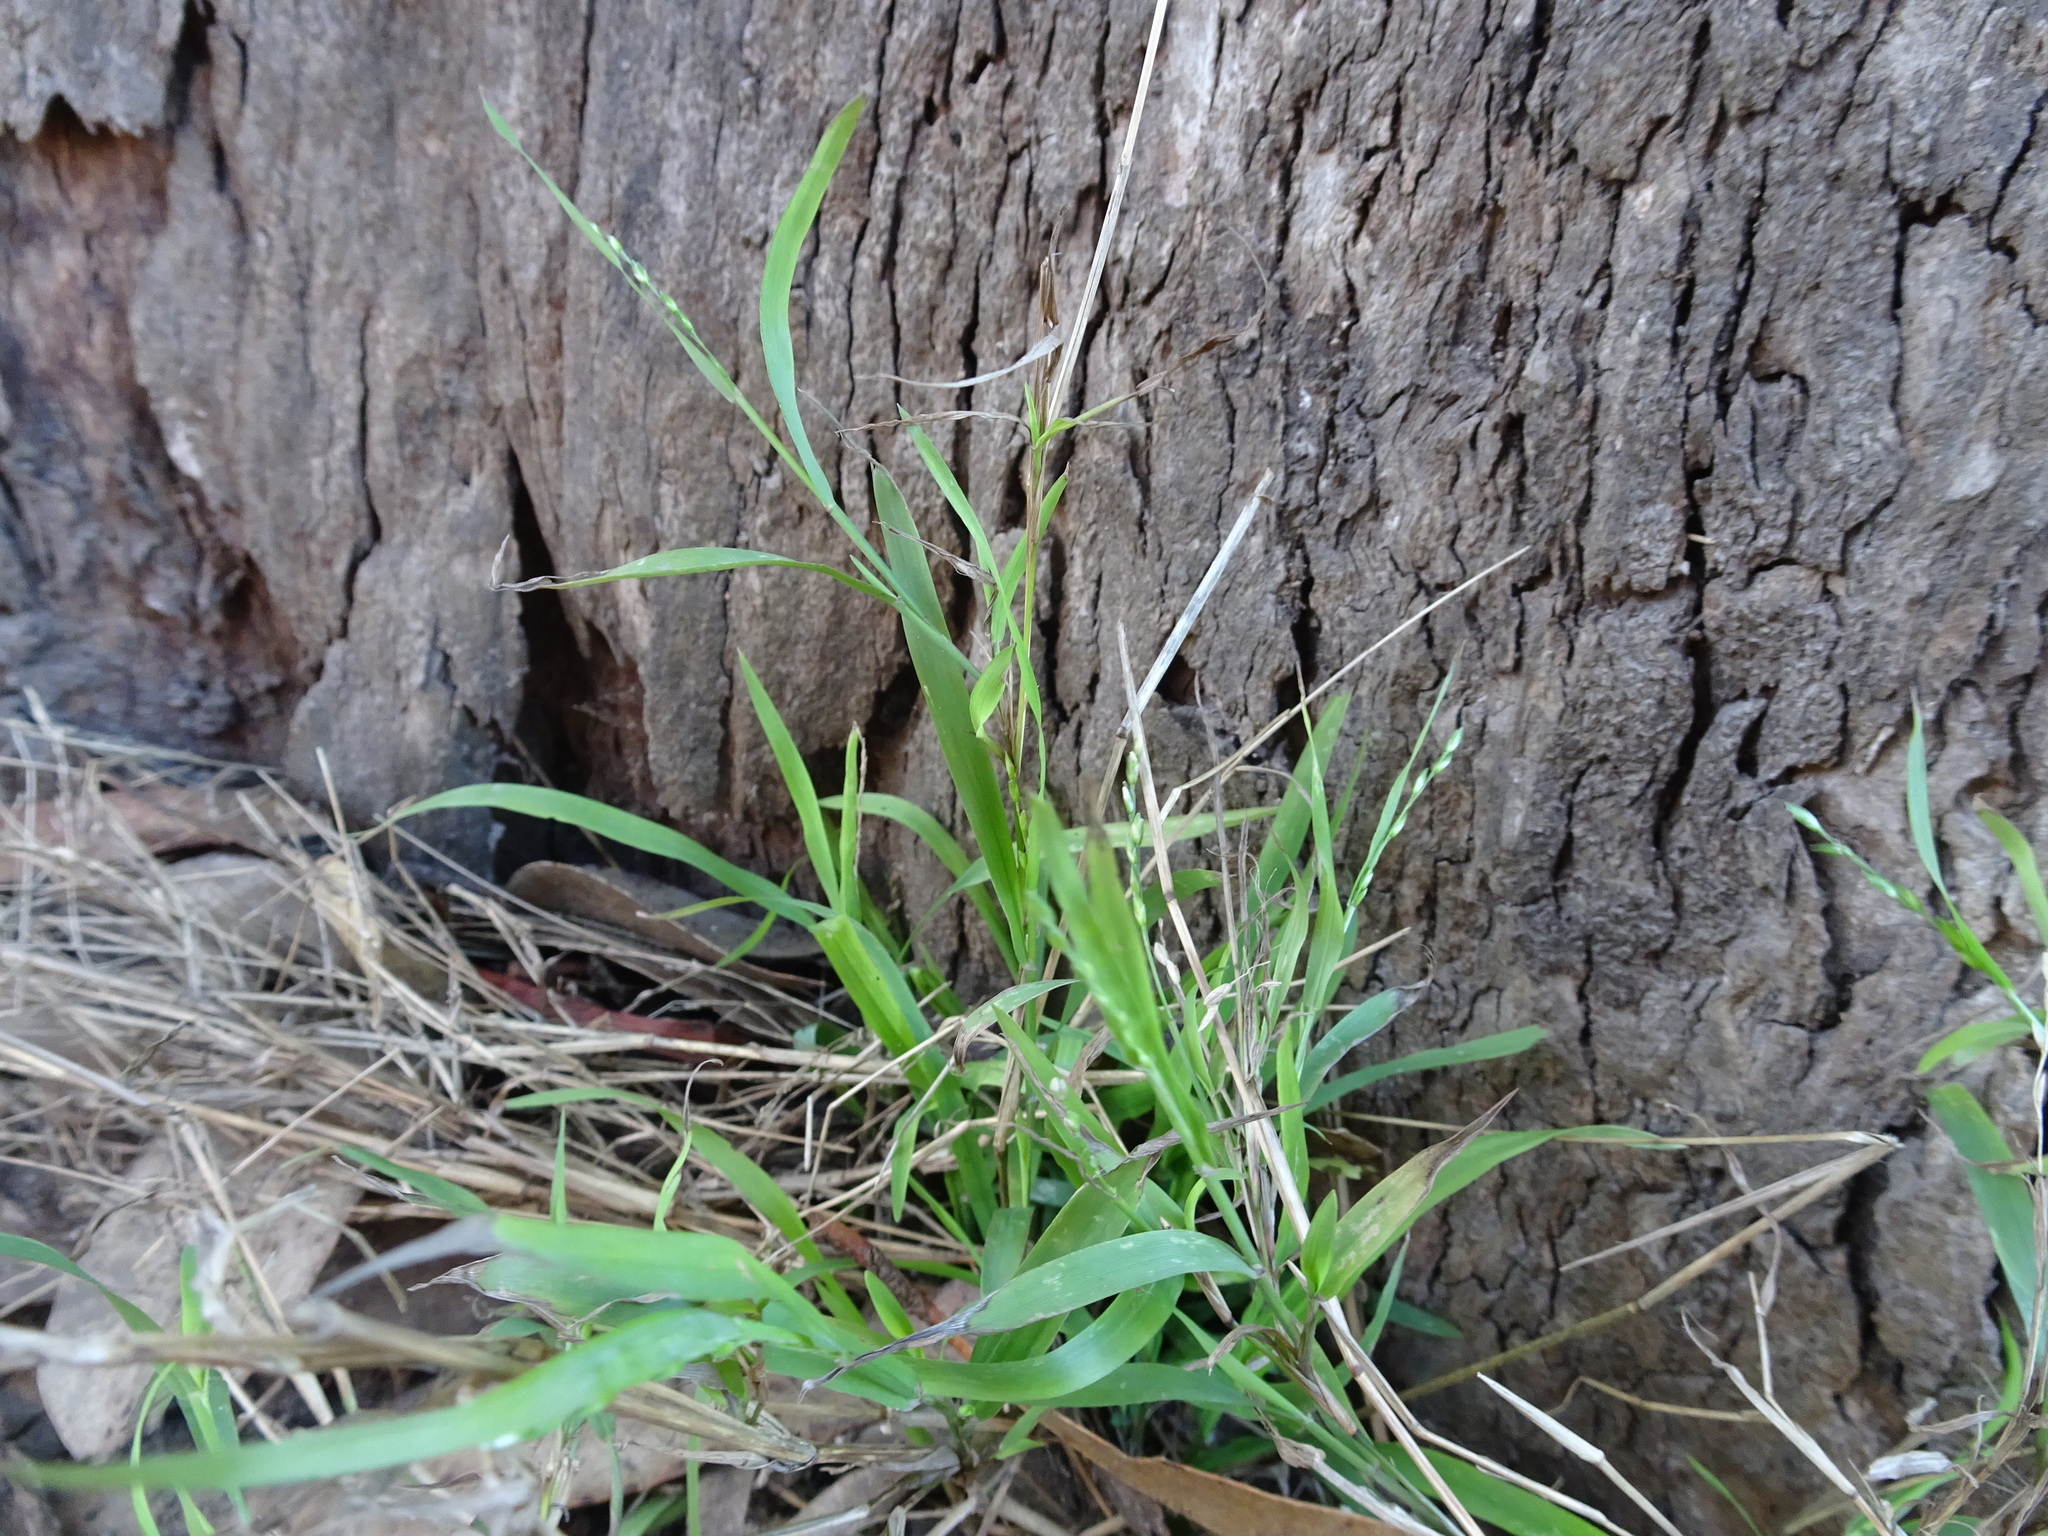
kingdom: Plantae
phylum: Tracheophyta
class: Liliopsida
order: Poales
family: Poaceae
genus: Ehrharta
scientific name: Ehrharta erecta
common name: Panic veldtgrass
